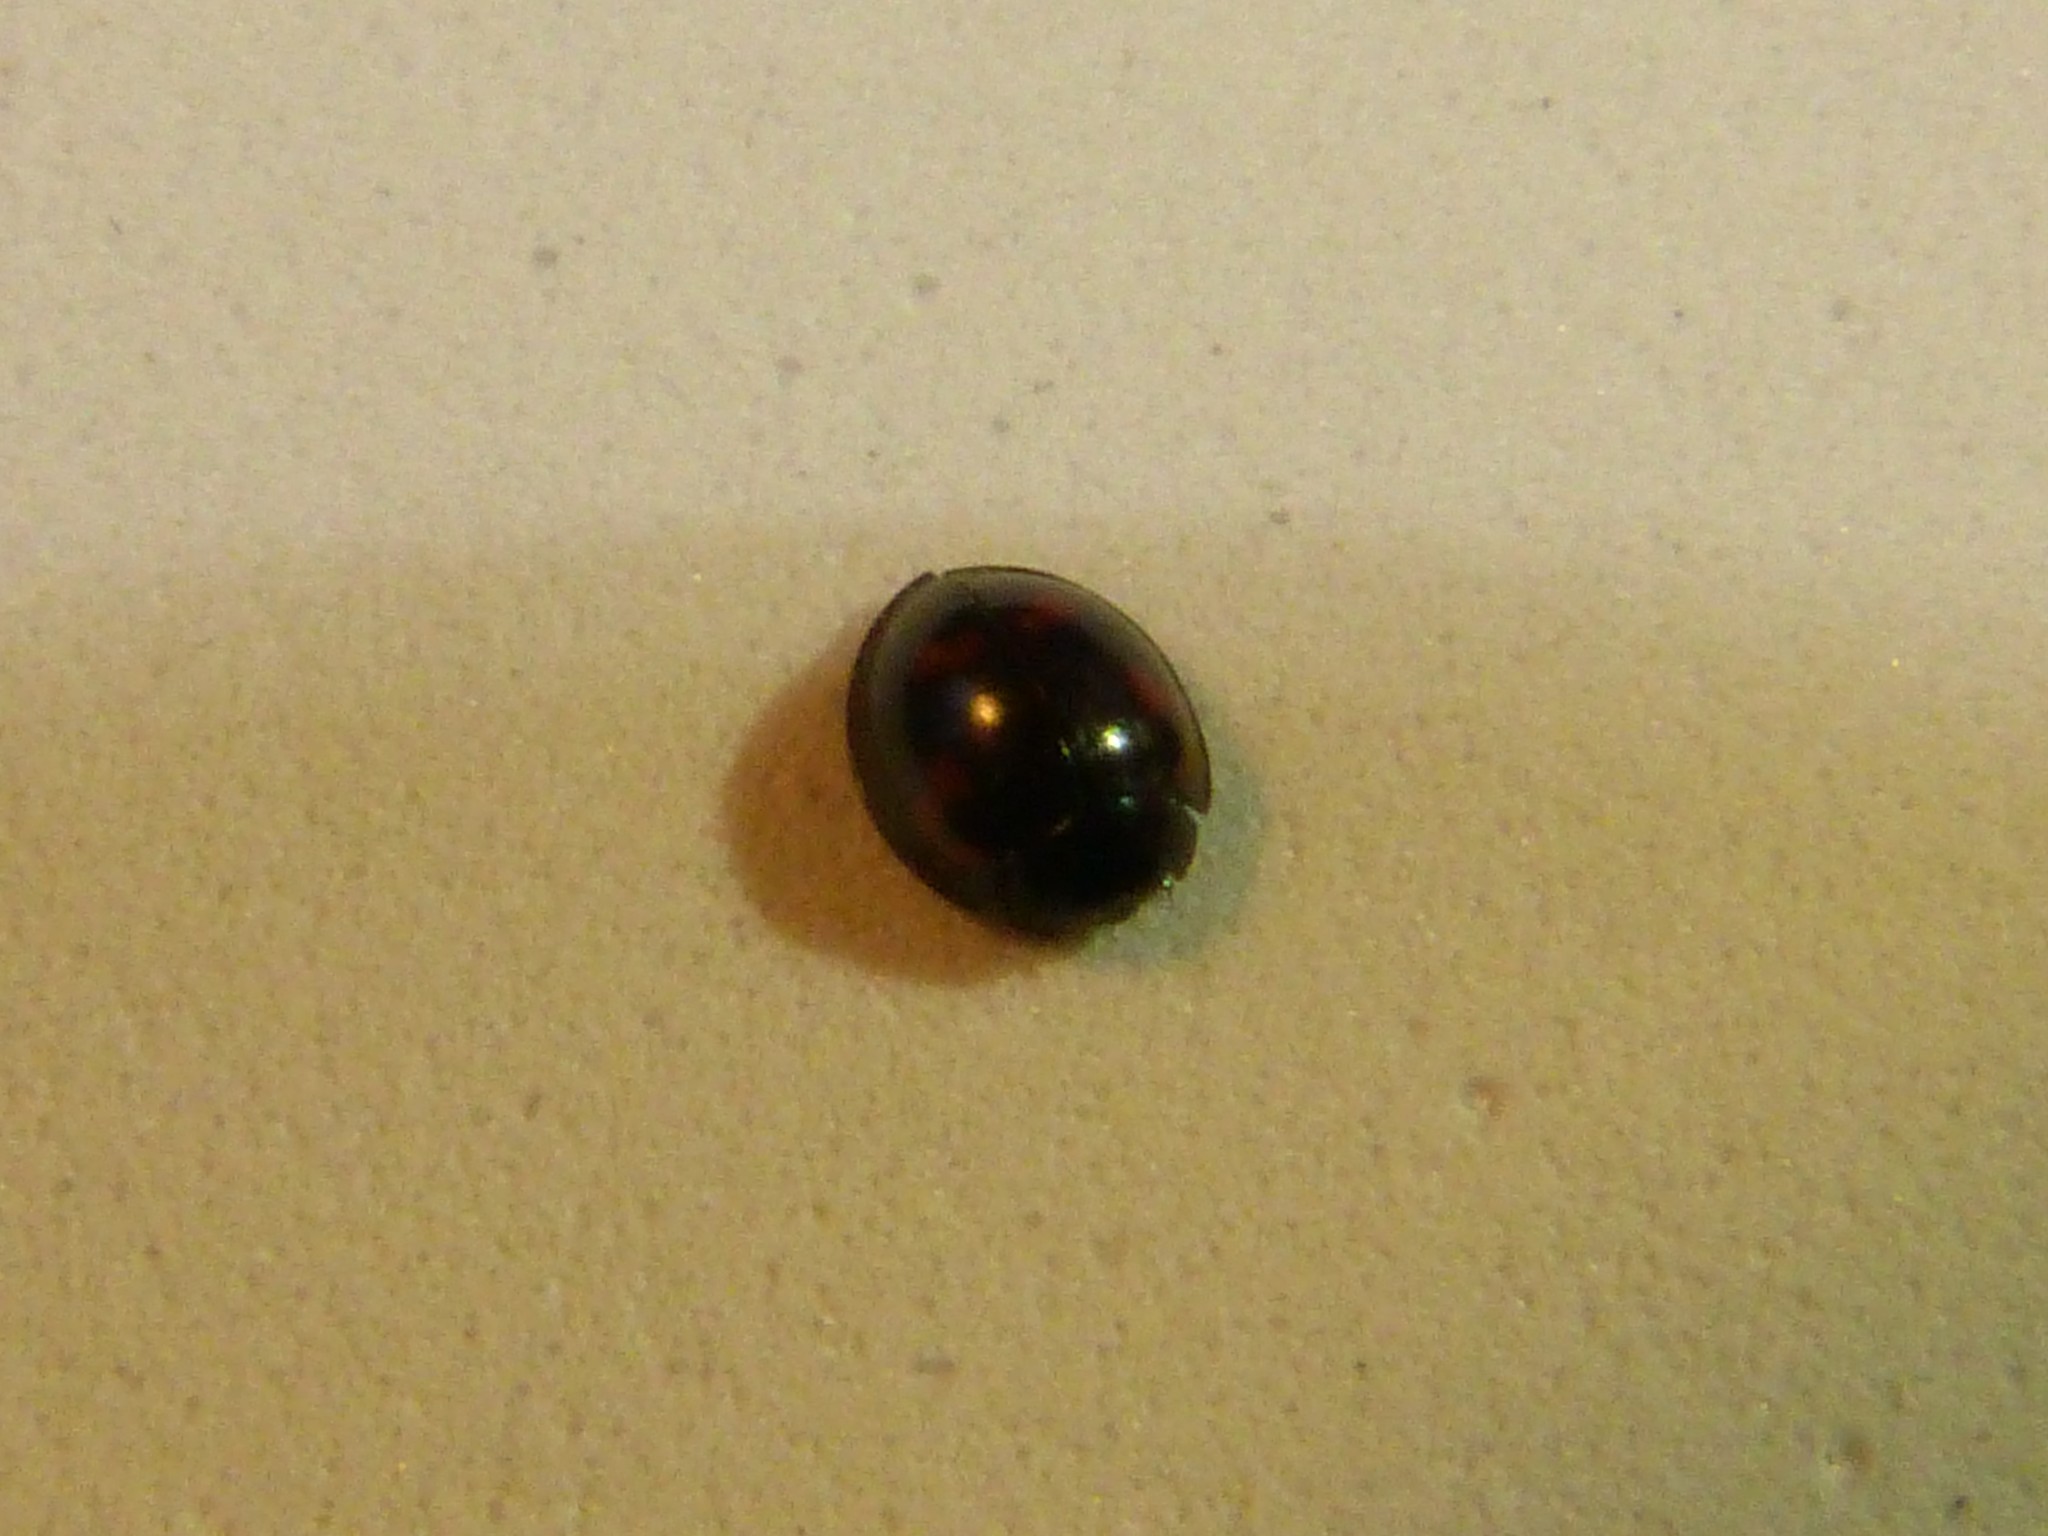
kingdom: Animalia
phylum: Arthropoda
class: Insecta
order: Coleoptera
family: Coccinellidae
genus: Brumus
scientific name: Brumus quadripustulatus
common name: Ladybird beetle
